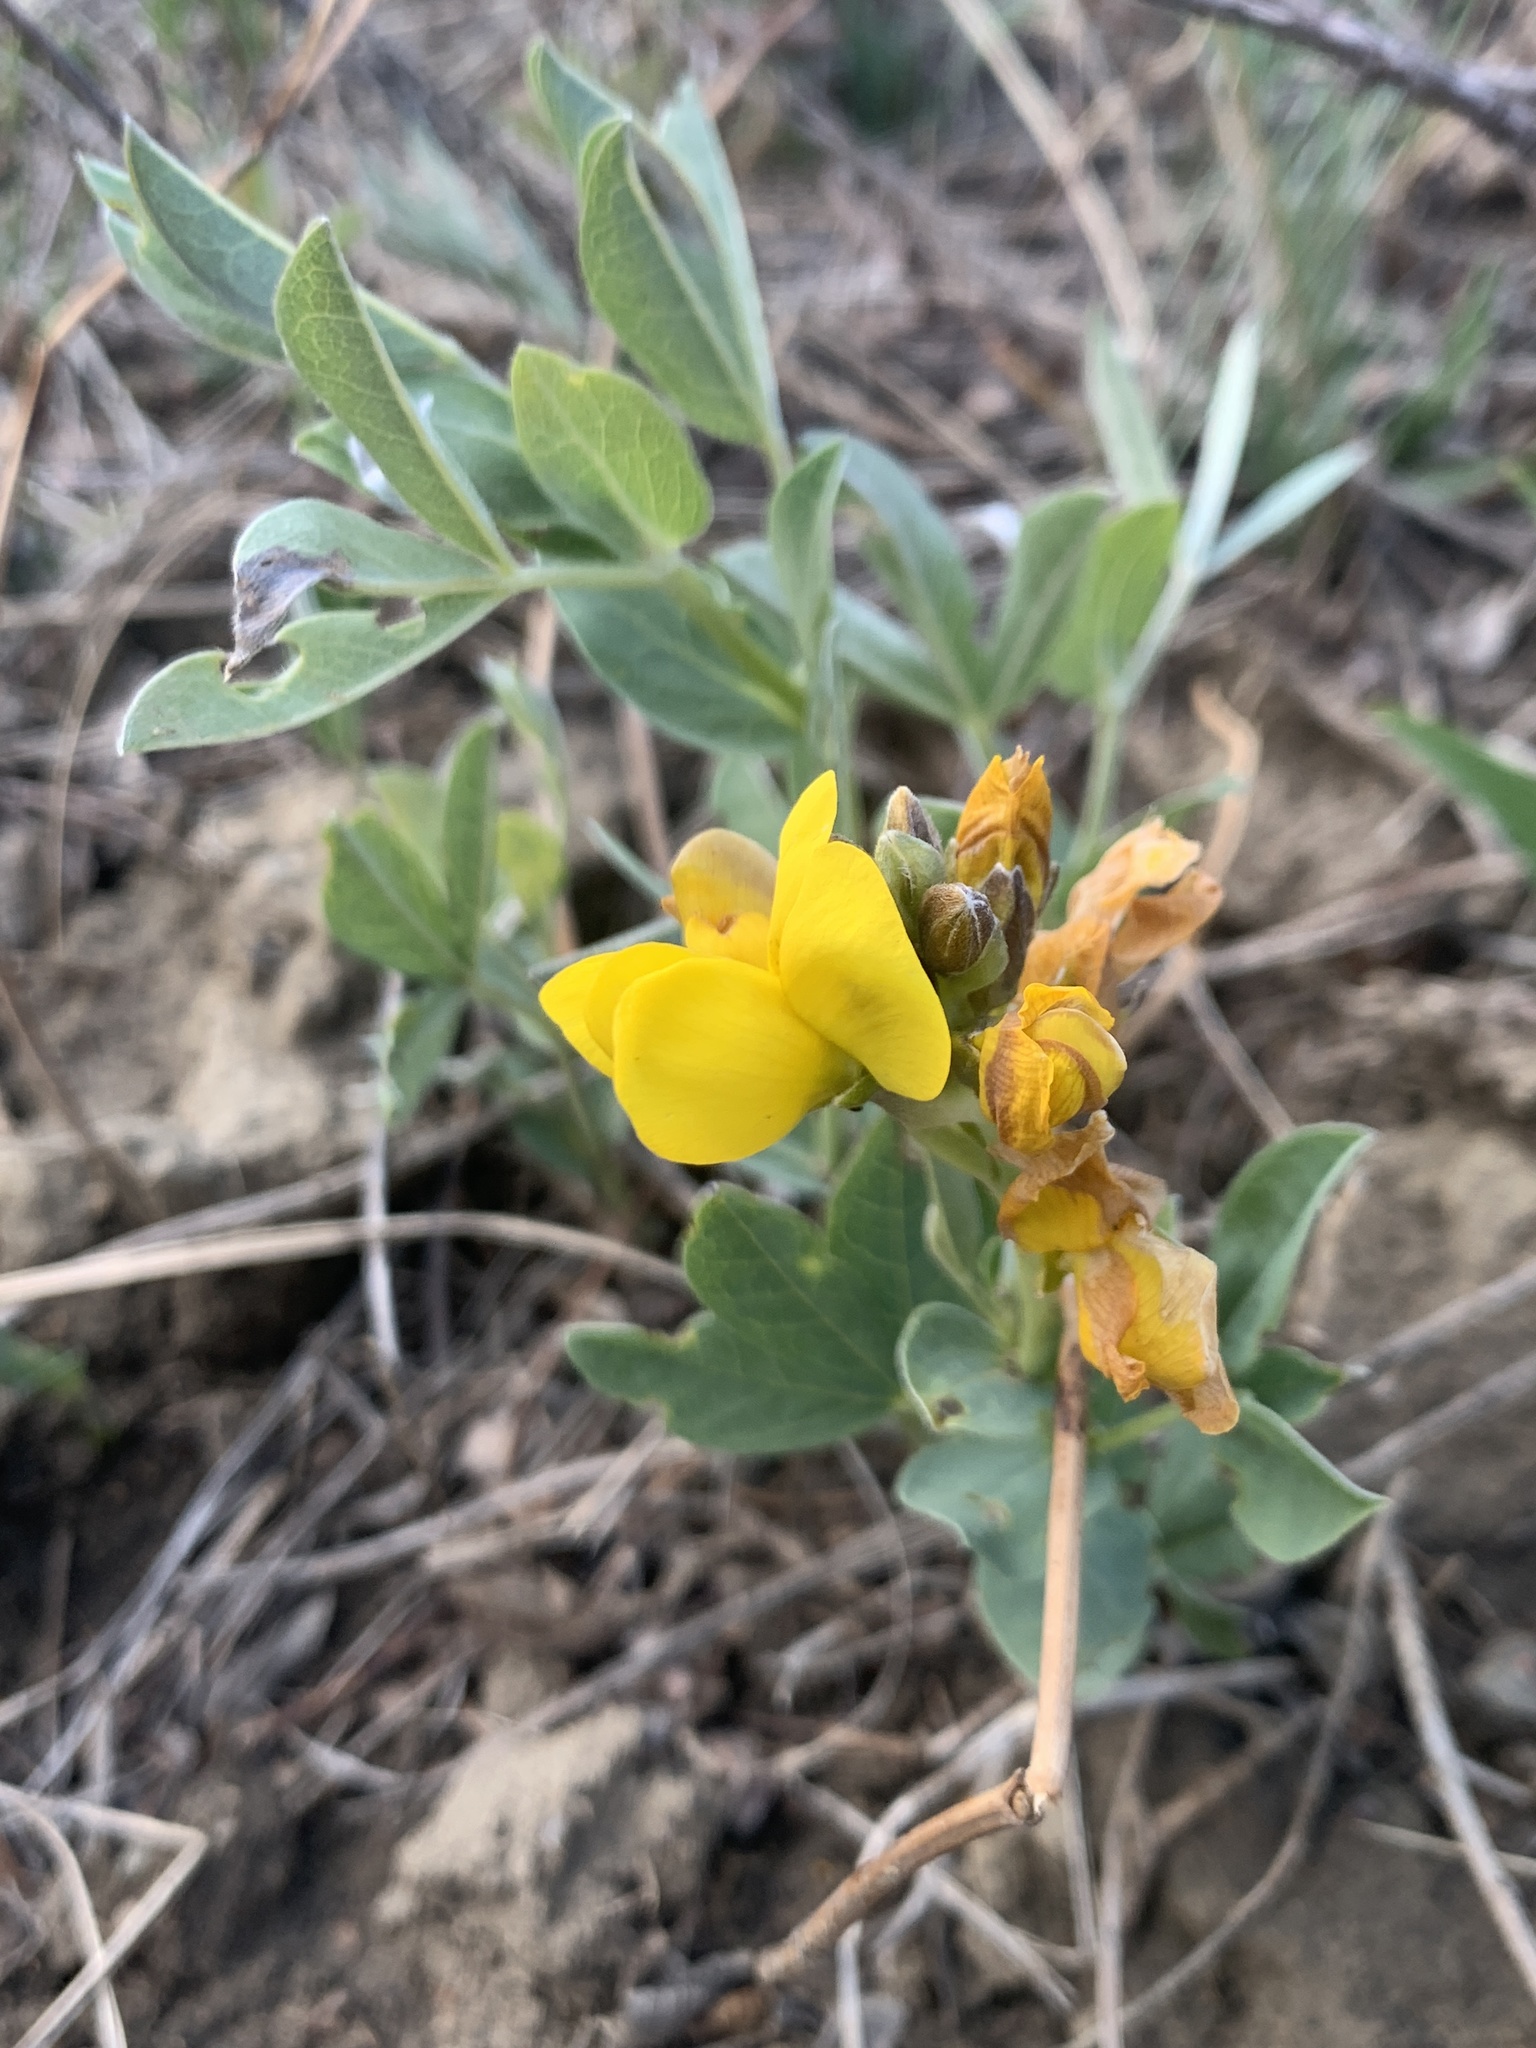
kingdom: Plantae
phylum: Tracheophyta
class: Magnoliopsida
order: Fabales
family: Fabaceae
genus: Thermopsis
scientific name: Thermopsis rhombifolia
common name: Circle-pod-pea
